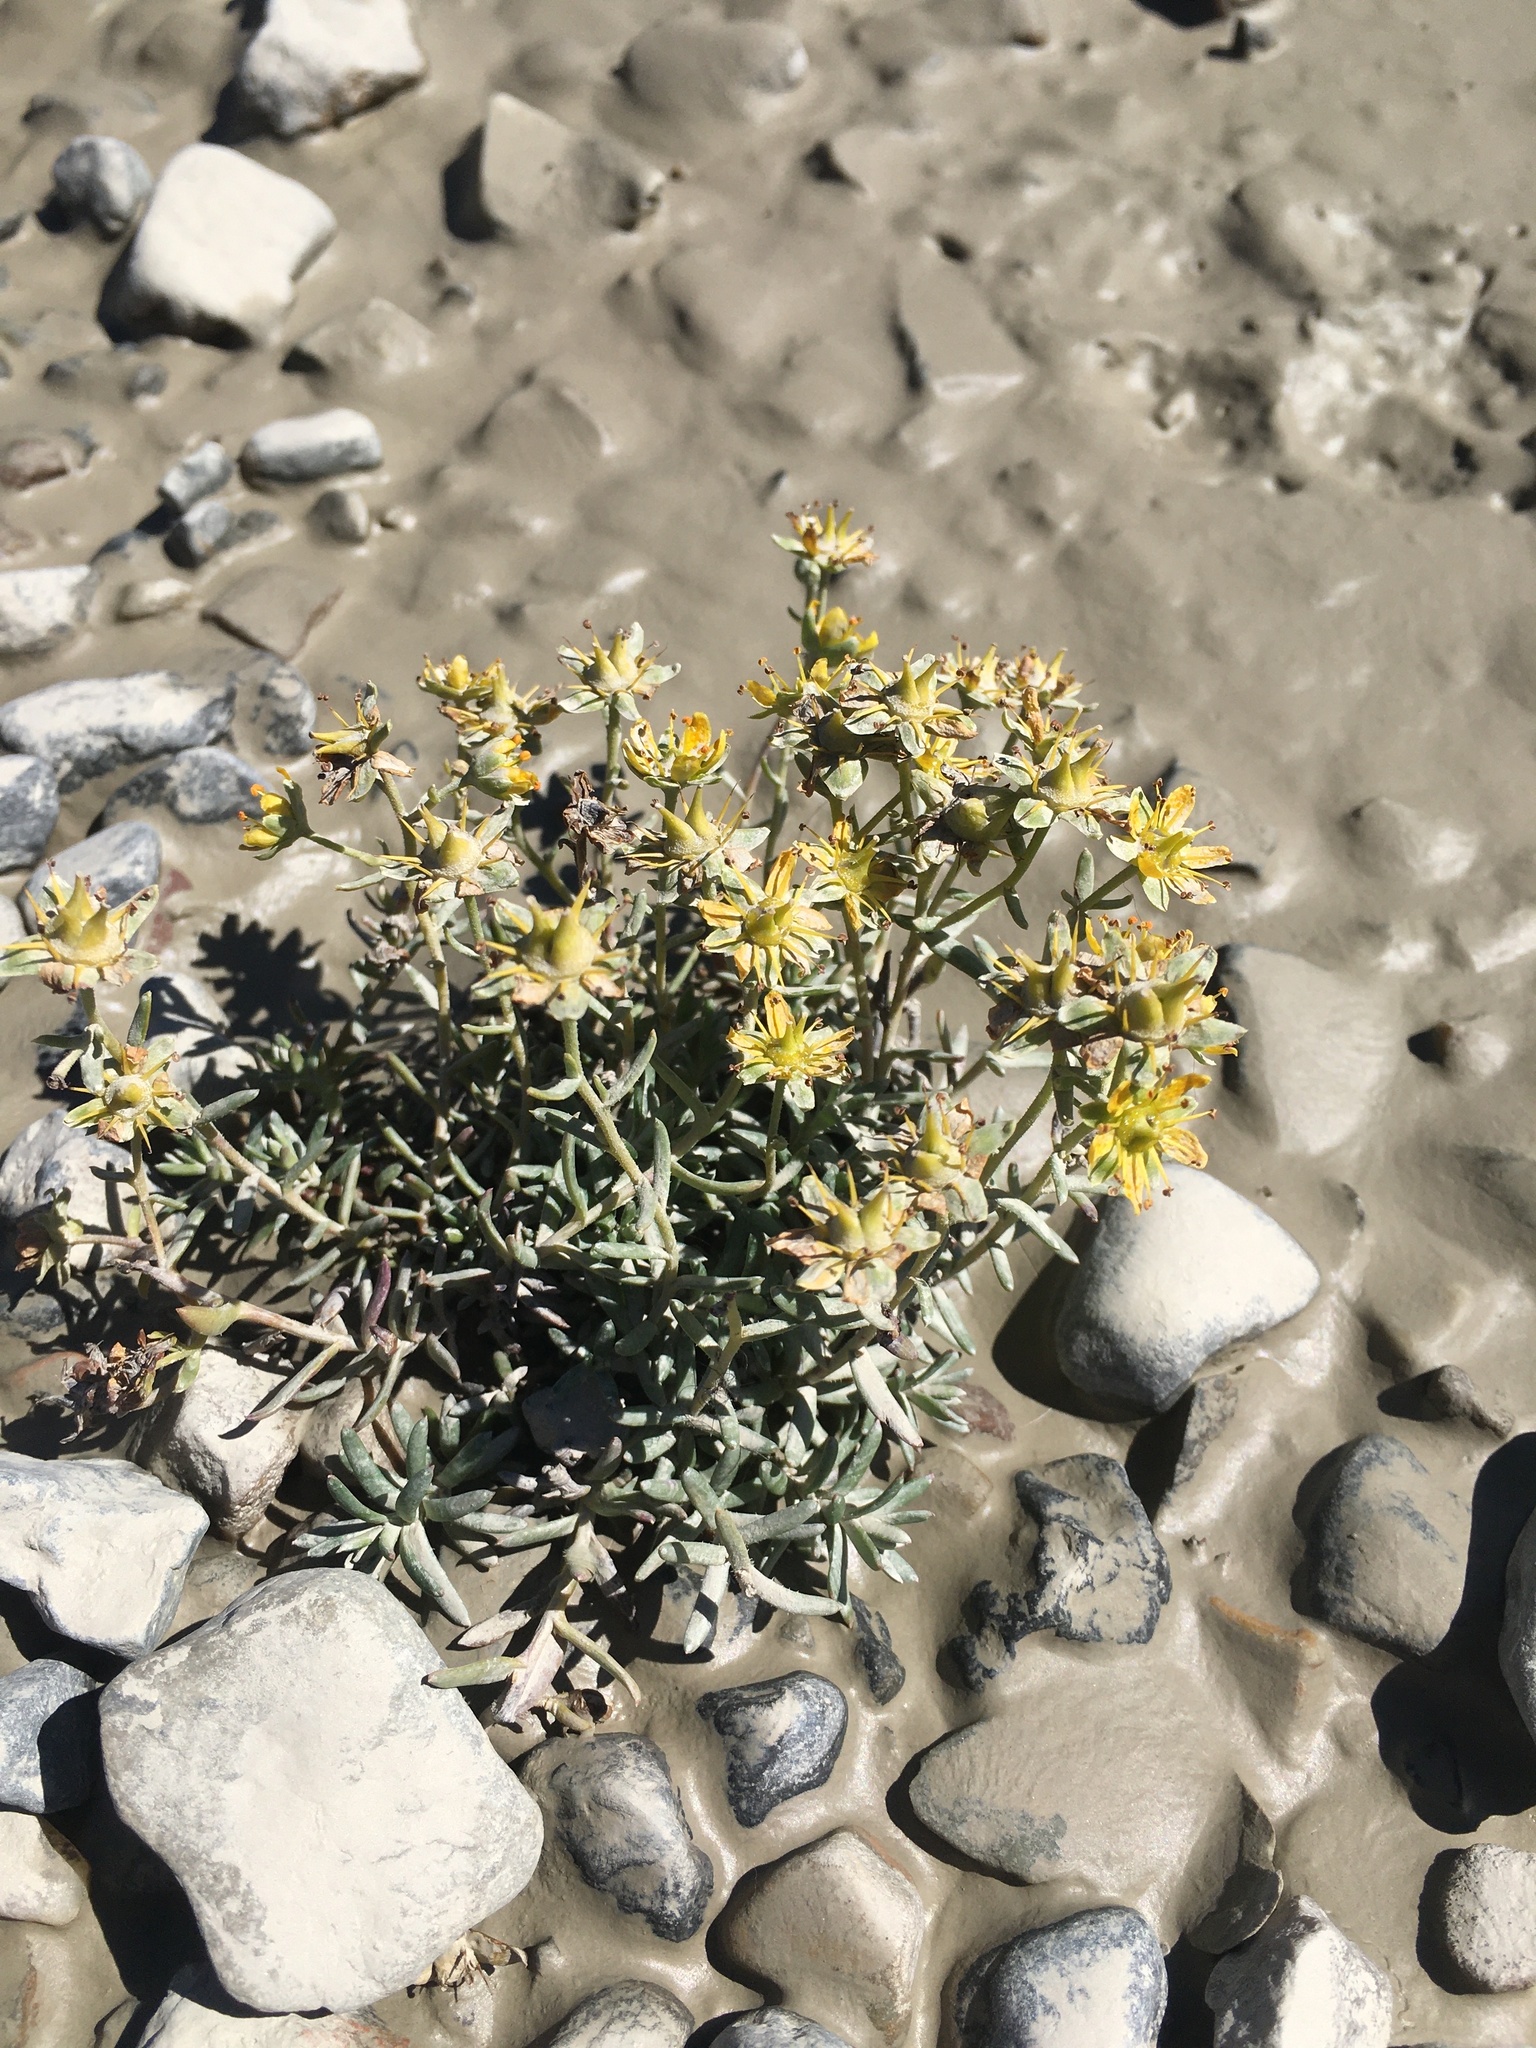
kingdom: Plantae
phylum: Tracheophyta
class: Magnoliopsida
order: Saxifragales
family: Saxifragaceae
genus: Saxifraga
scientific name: Saxifraga aizoides
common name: Yellow mountain saxifrage
